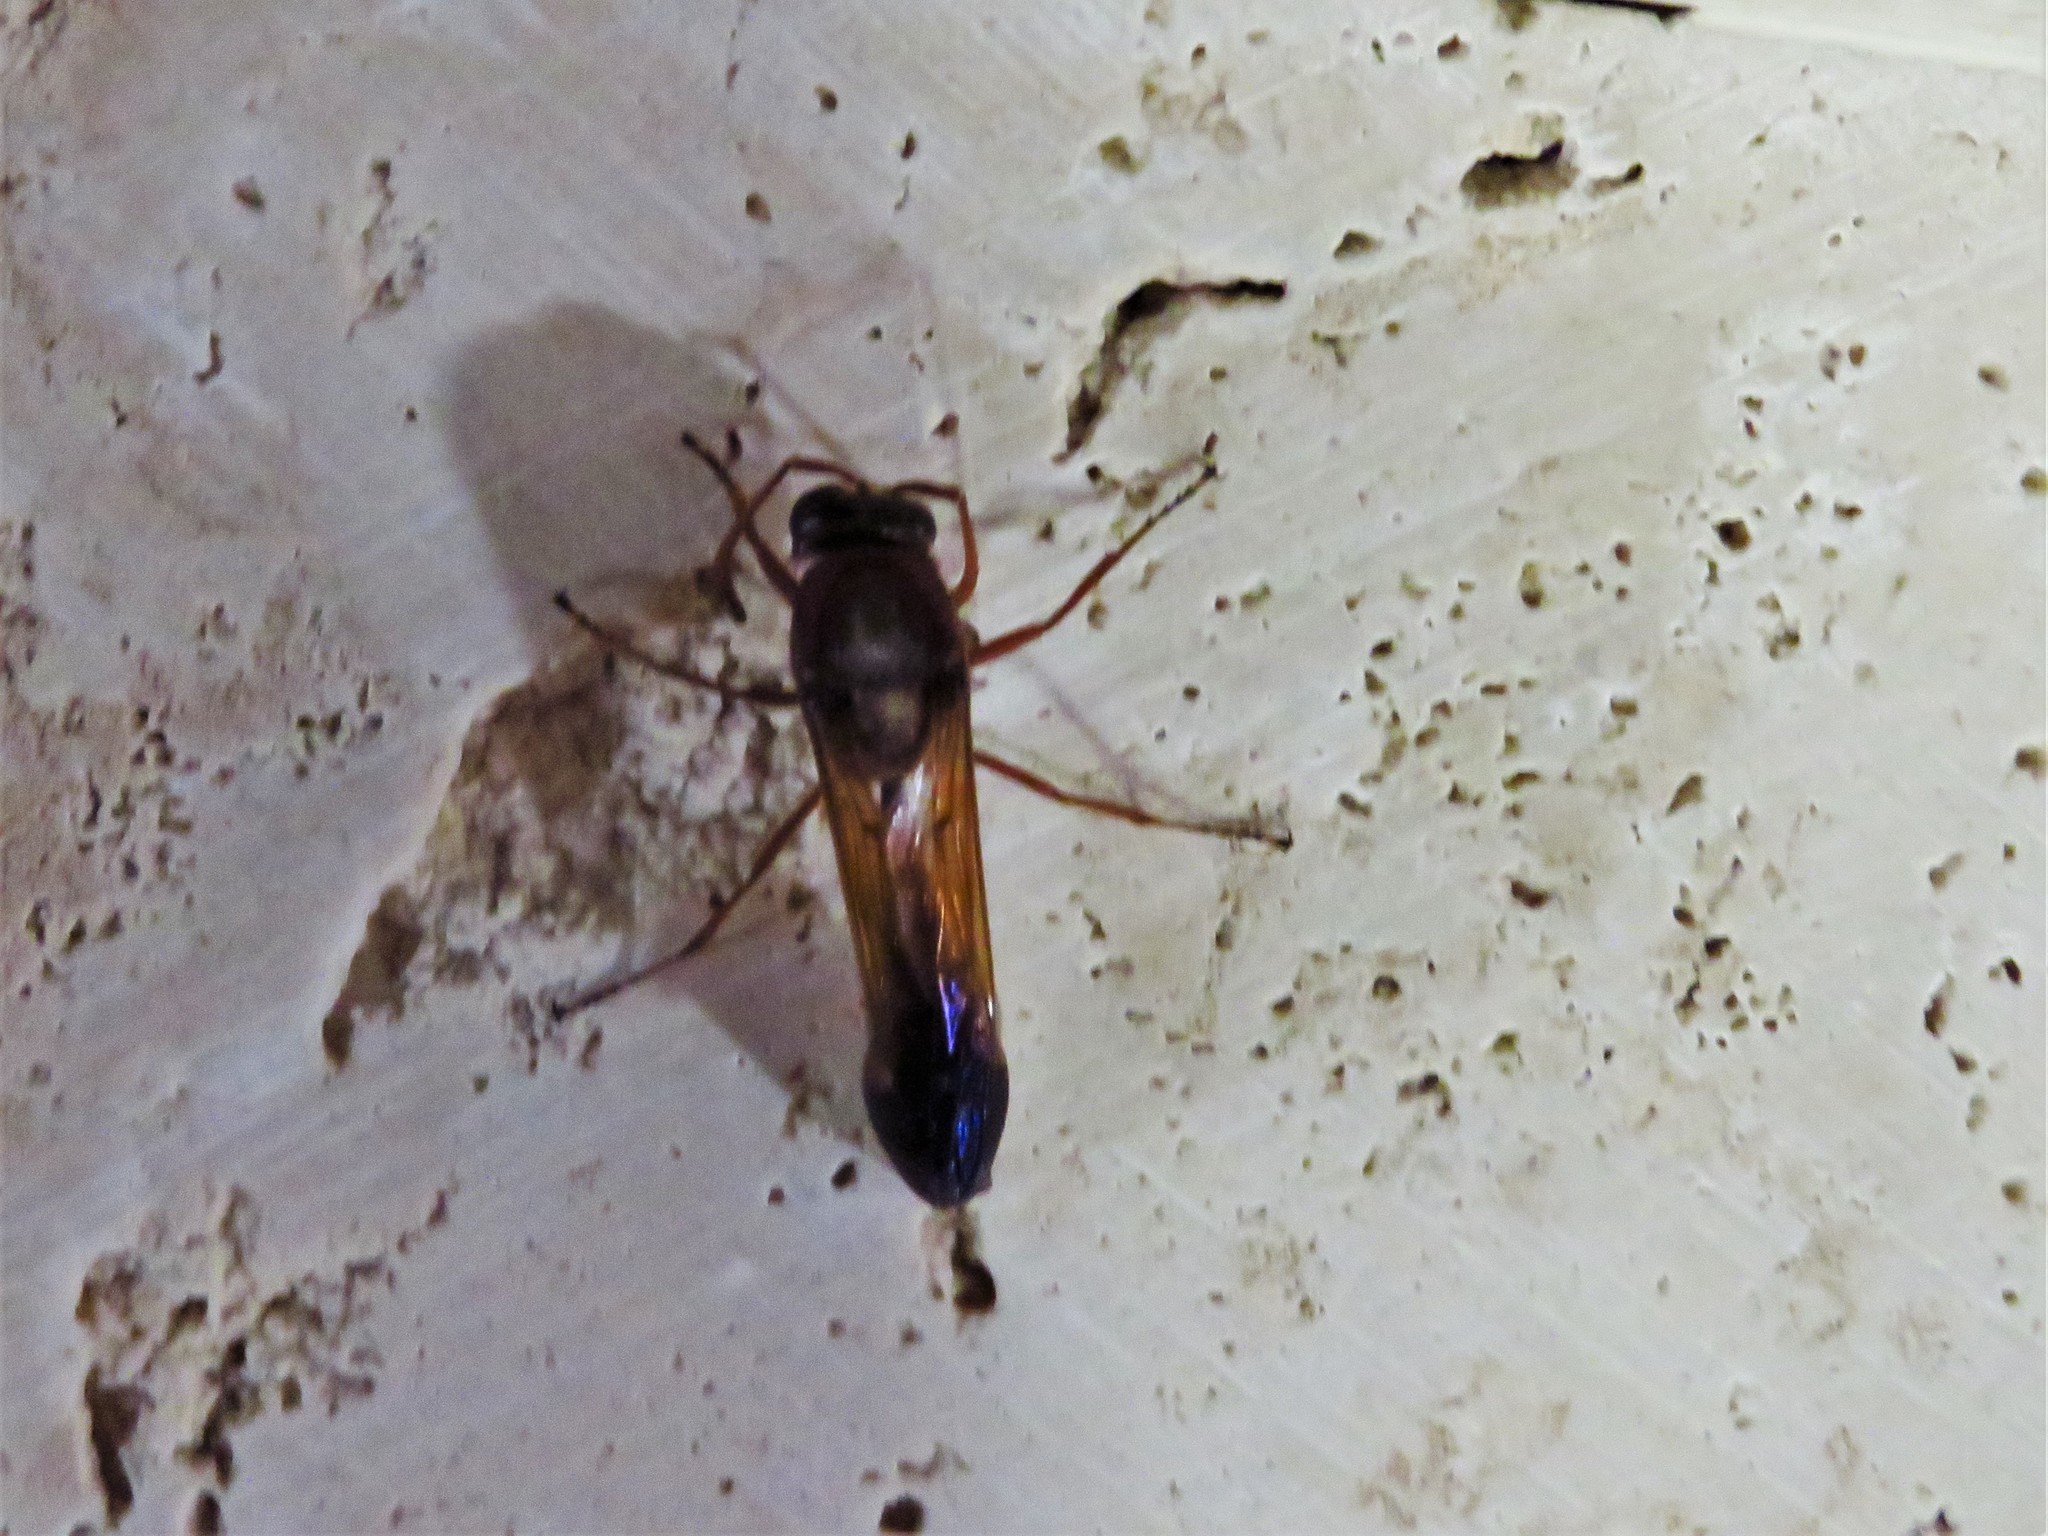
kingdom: Animalia
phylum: Arthropoda
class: Insecta
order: Hymenoptera
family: Eumenidae
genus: Delta
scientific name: Delta dimidiatipenne
